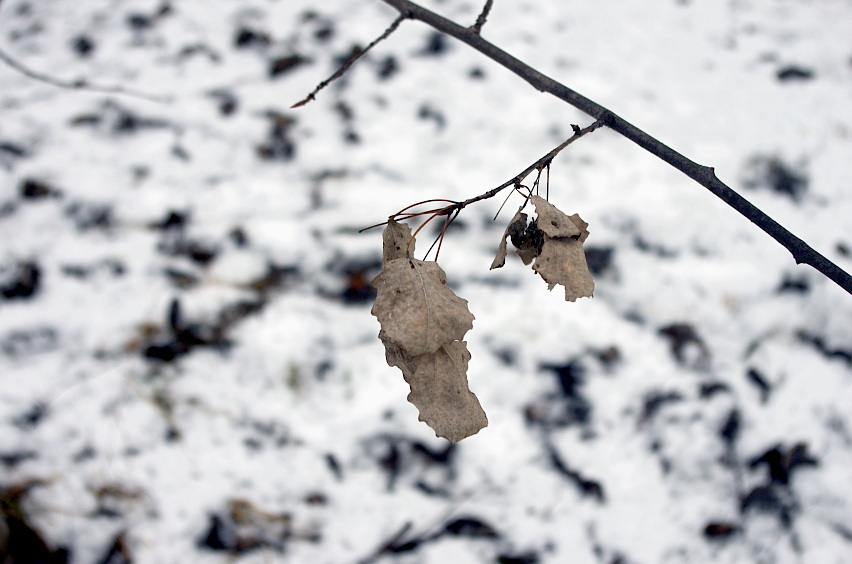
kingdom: Plantae
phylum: Tracheophyta
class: Magnoliopsida
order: Malpighiales
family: Salicaceae
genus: Populus
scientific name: Populus tremula
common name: European aspen
